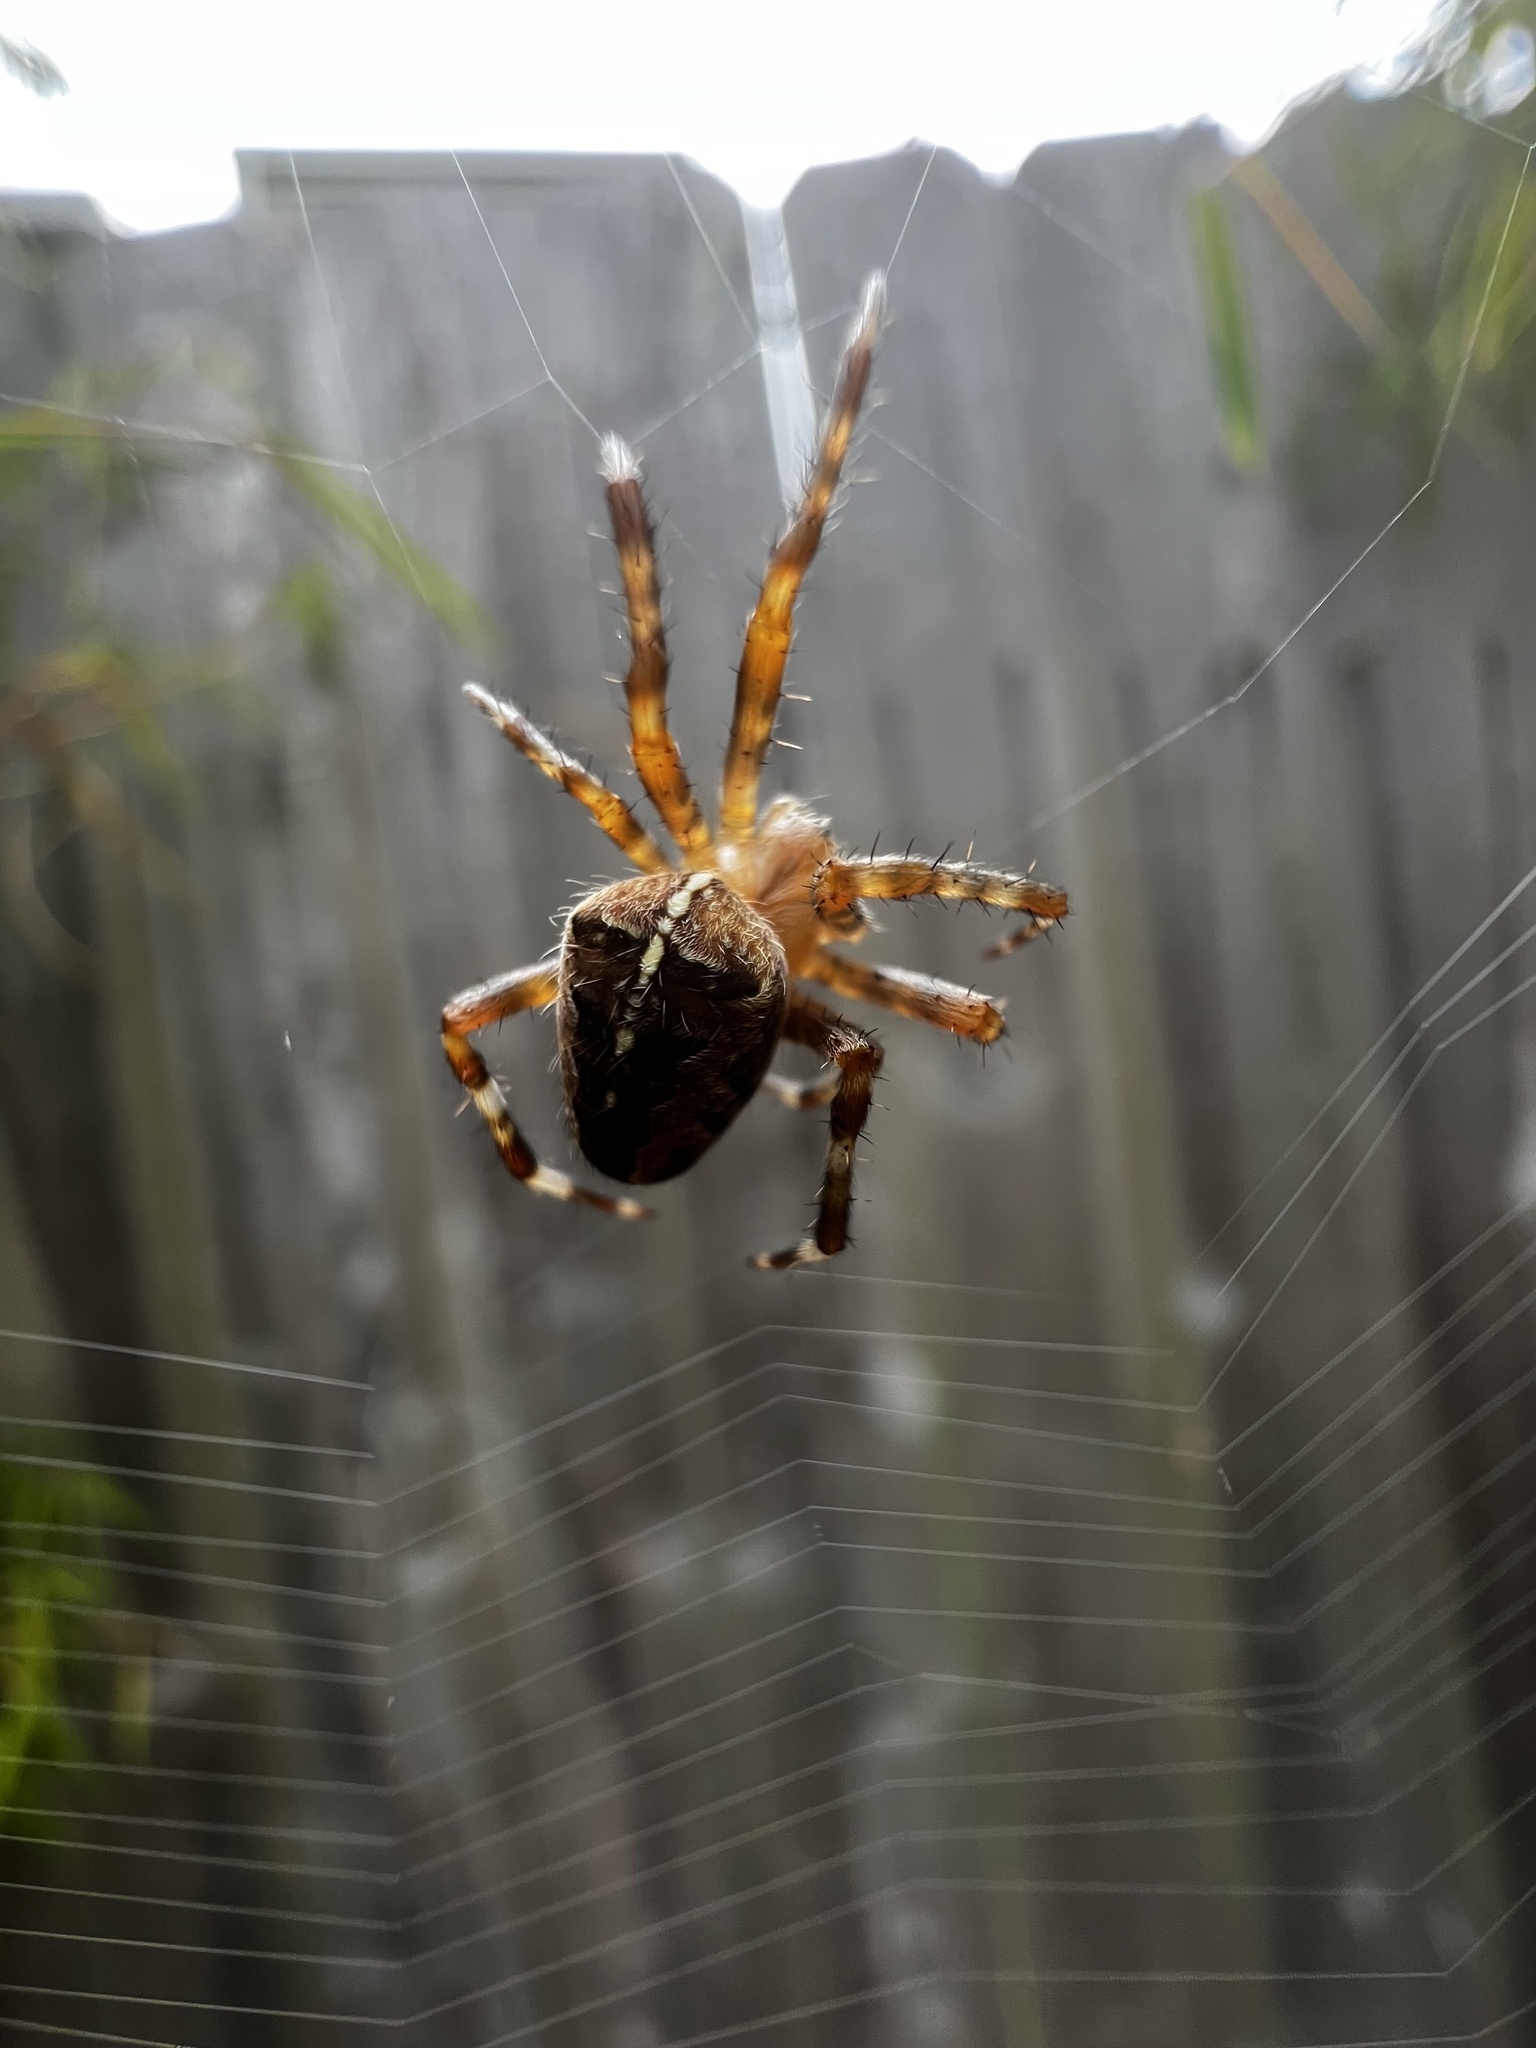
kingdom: Animalia
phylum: Arthropoda
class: Arachnida
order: Araneae
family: Araneidae
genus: Araneus
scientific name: Araneus diadematus
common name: Cross orbweaver
